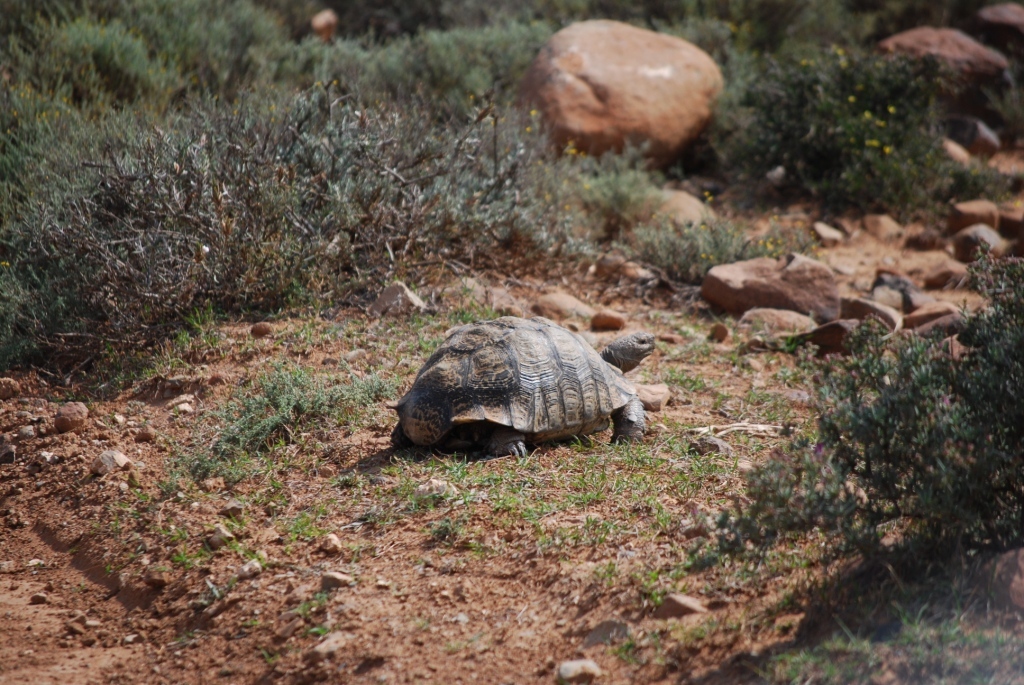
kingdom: Animalia
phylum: Chordata
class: Testudines
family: Testudinidae
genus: Stigmochelys
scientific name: Stigmochelys pardalis
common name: Leopard tortoise
